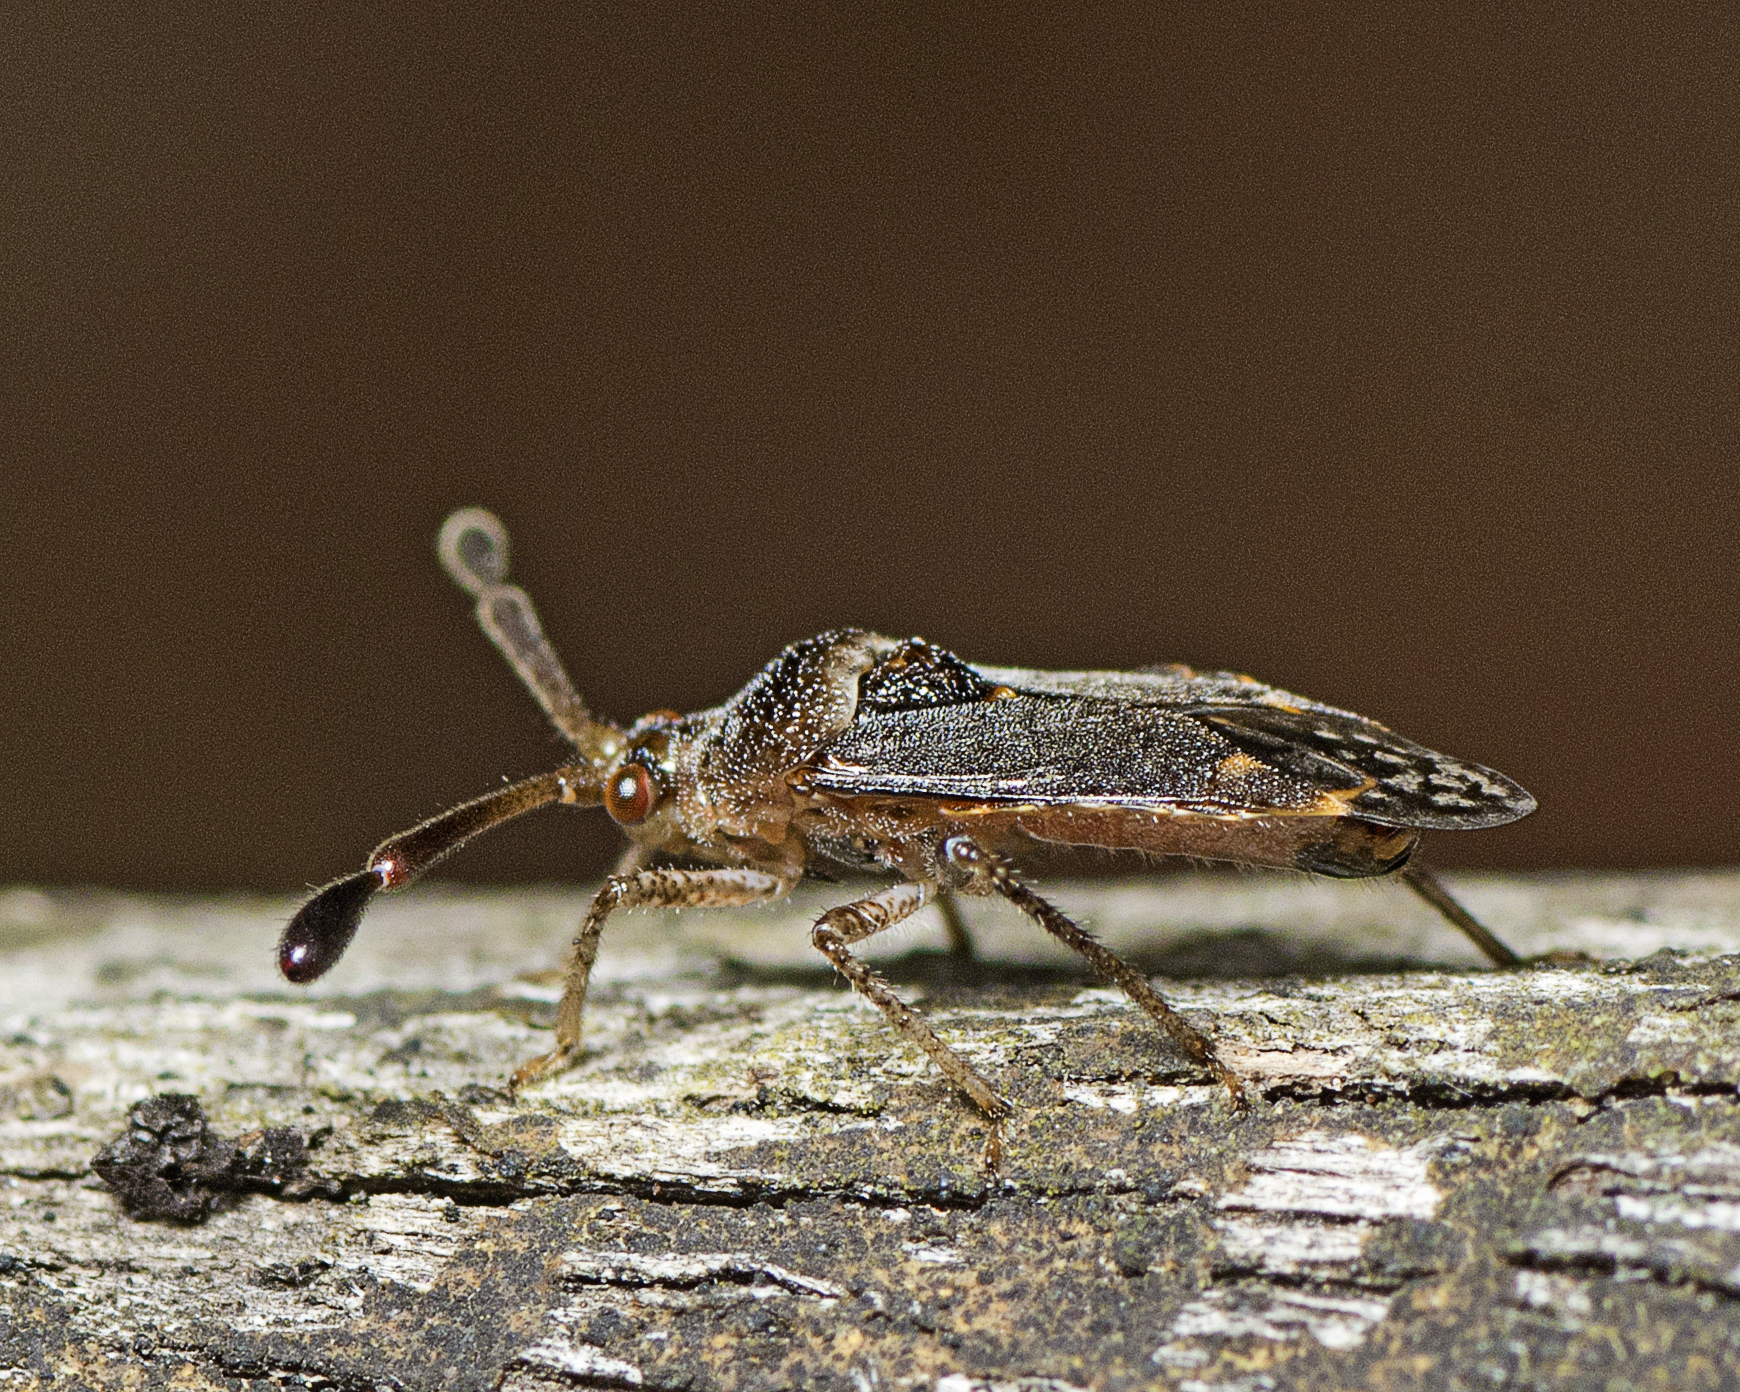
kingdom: Animalia
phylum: Arthropoda
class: Insecta
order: Hemiptera
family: Miridae
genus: Volkelius
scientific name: Volkelius niger
